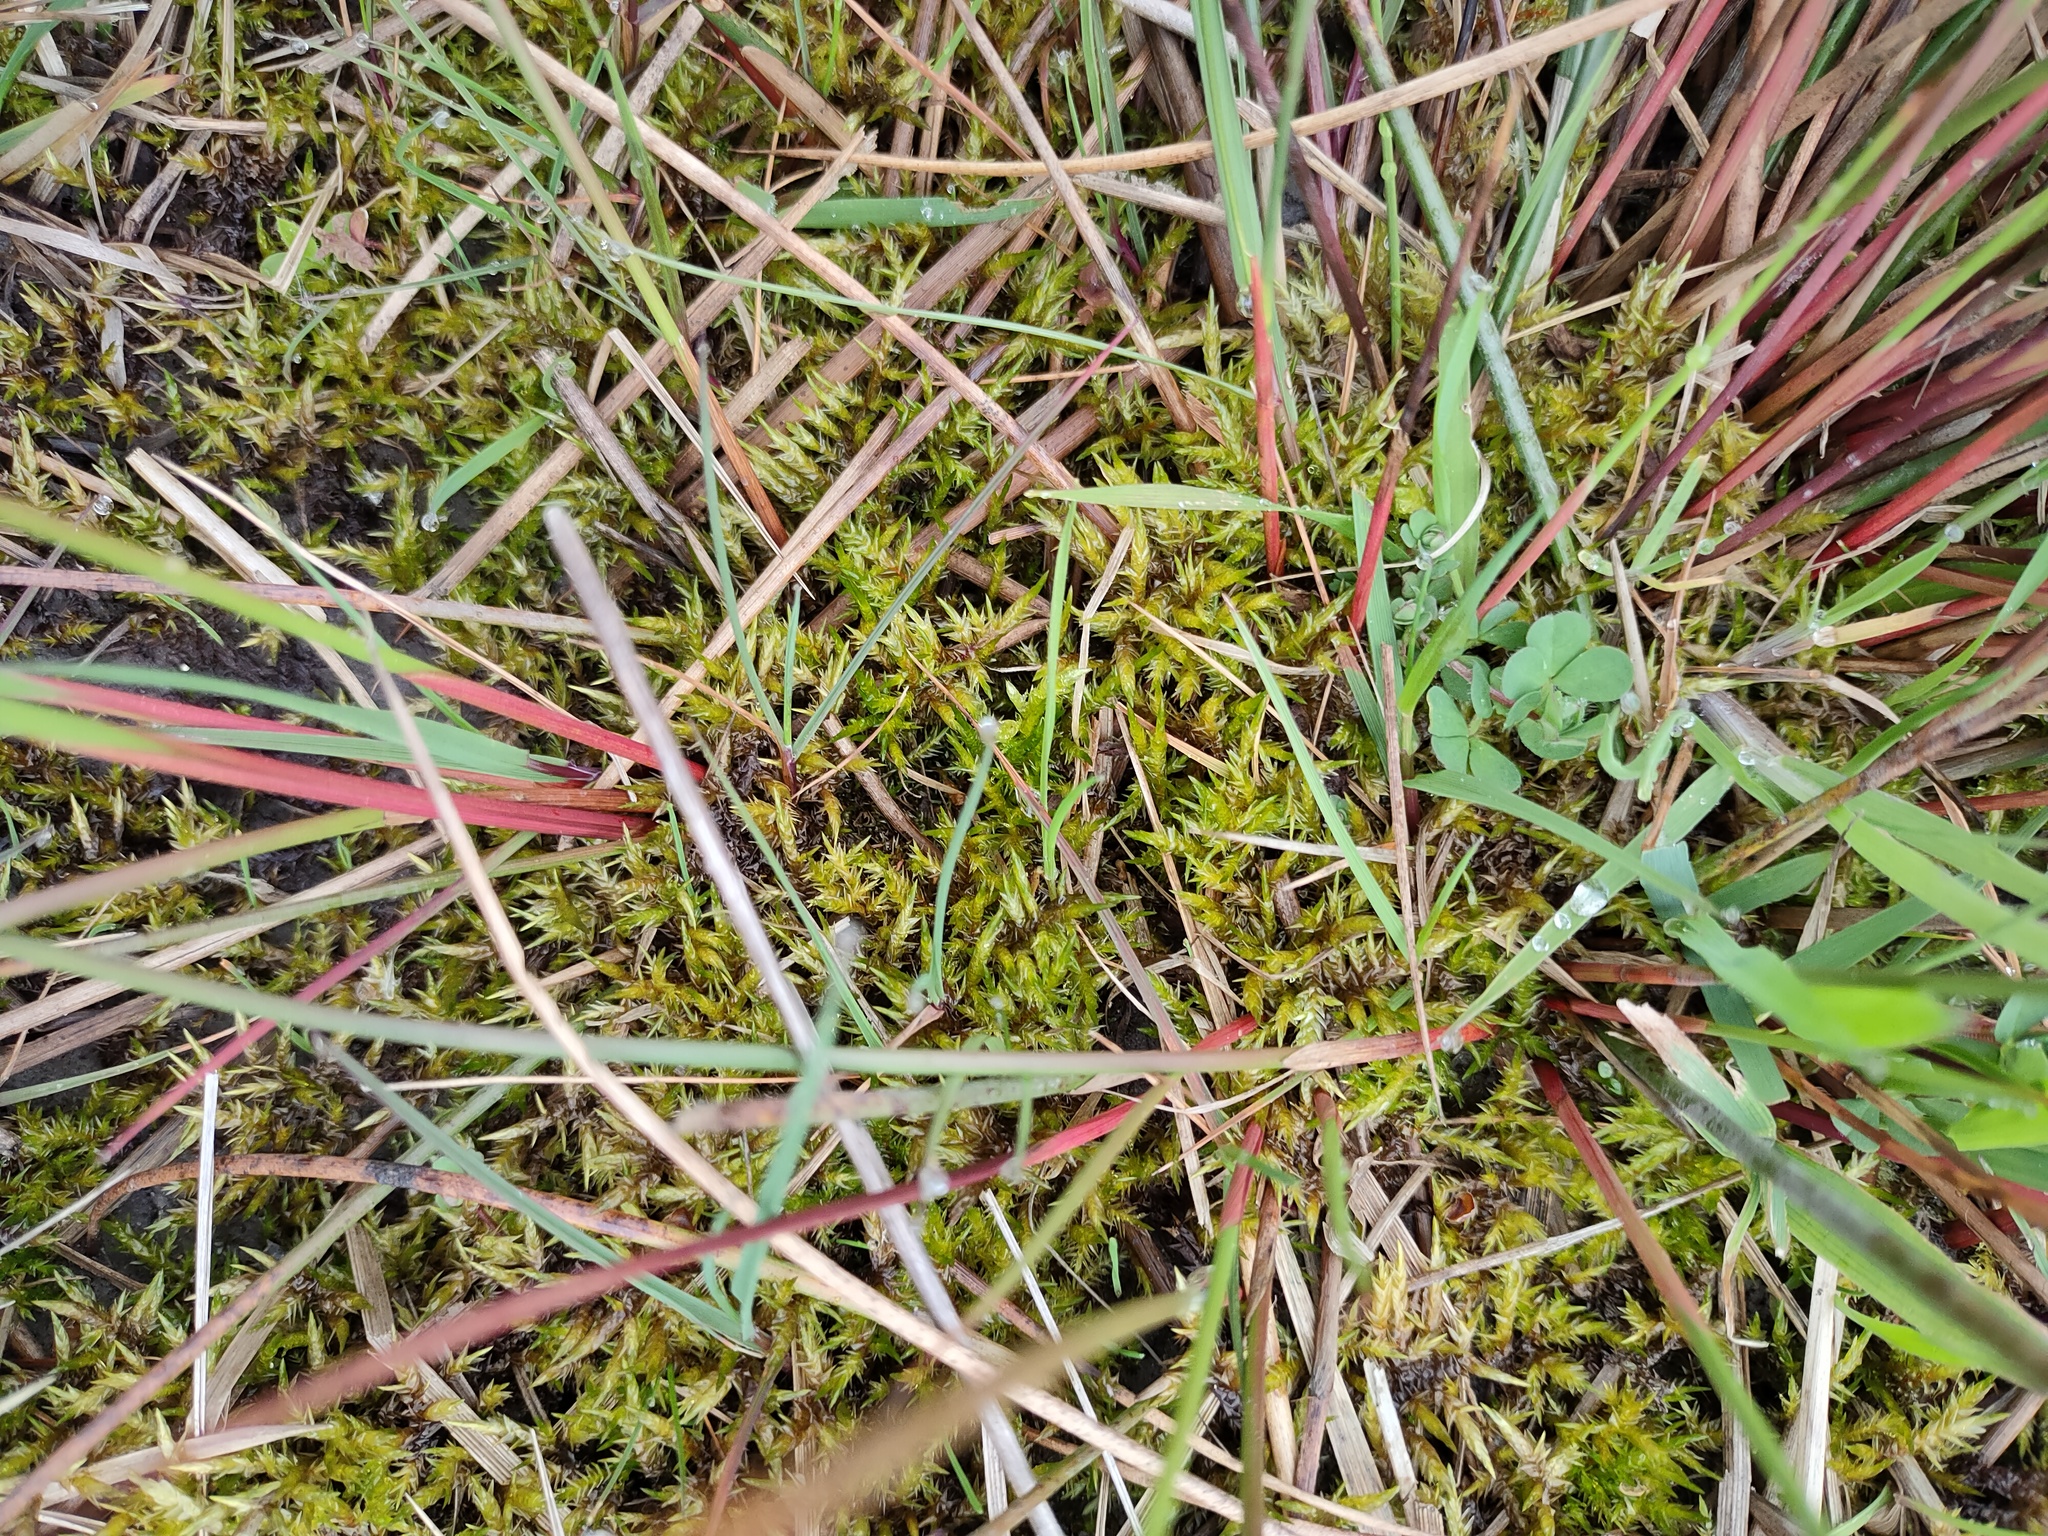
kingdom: Plantae
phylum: Bryophyta
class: Bryopsida
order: Hypnales
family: Pylaisiaceae
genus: Calliergonella
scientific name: Calliergonella cuspidata
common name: Common large wetland moss
